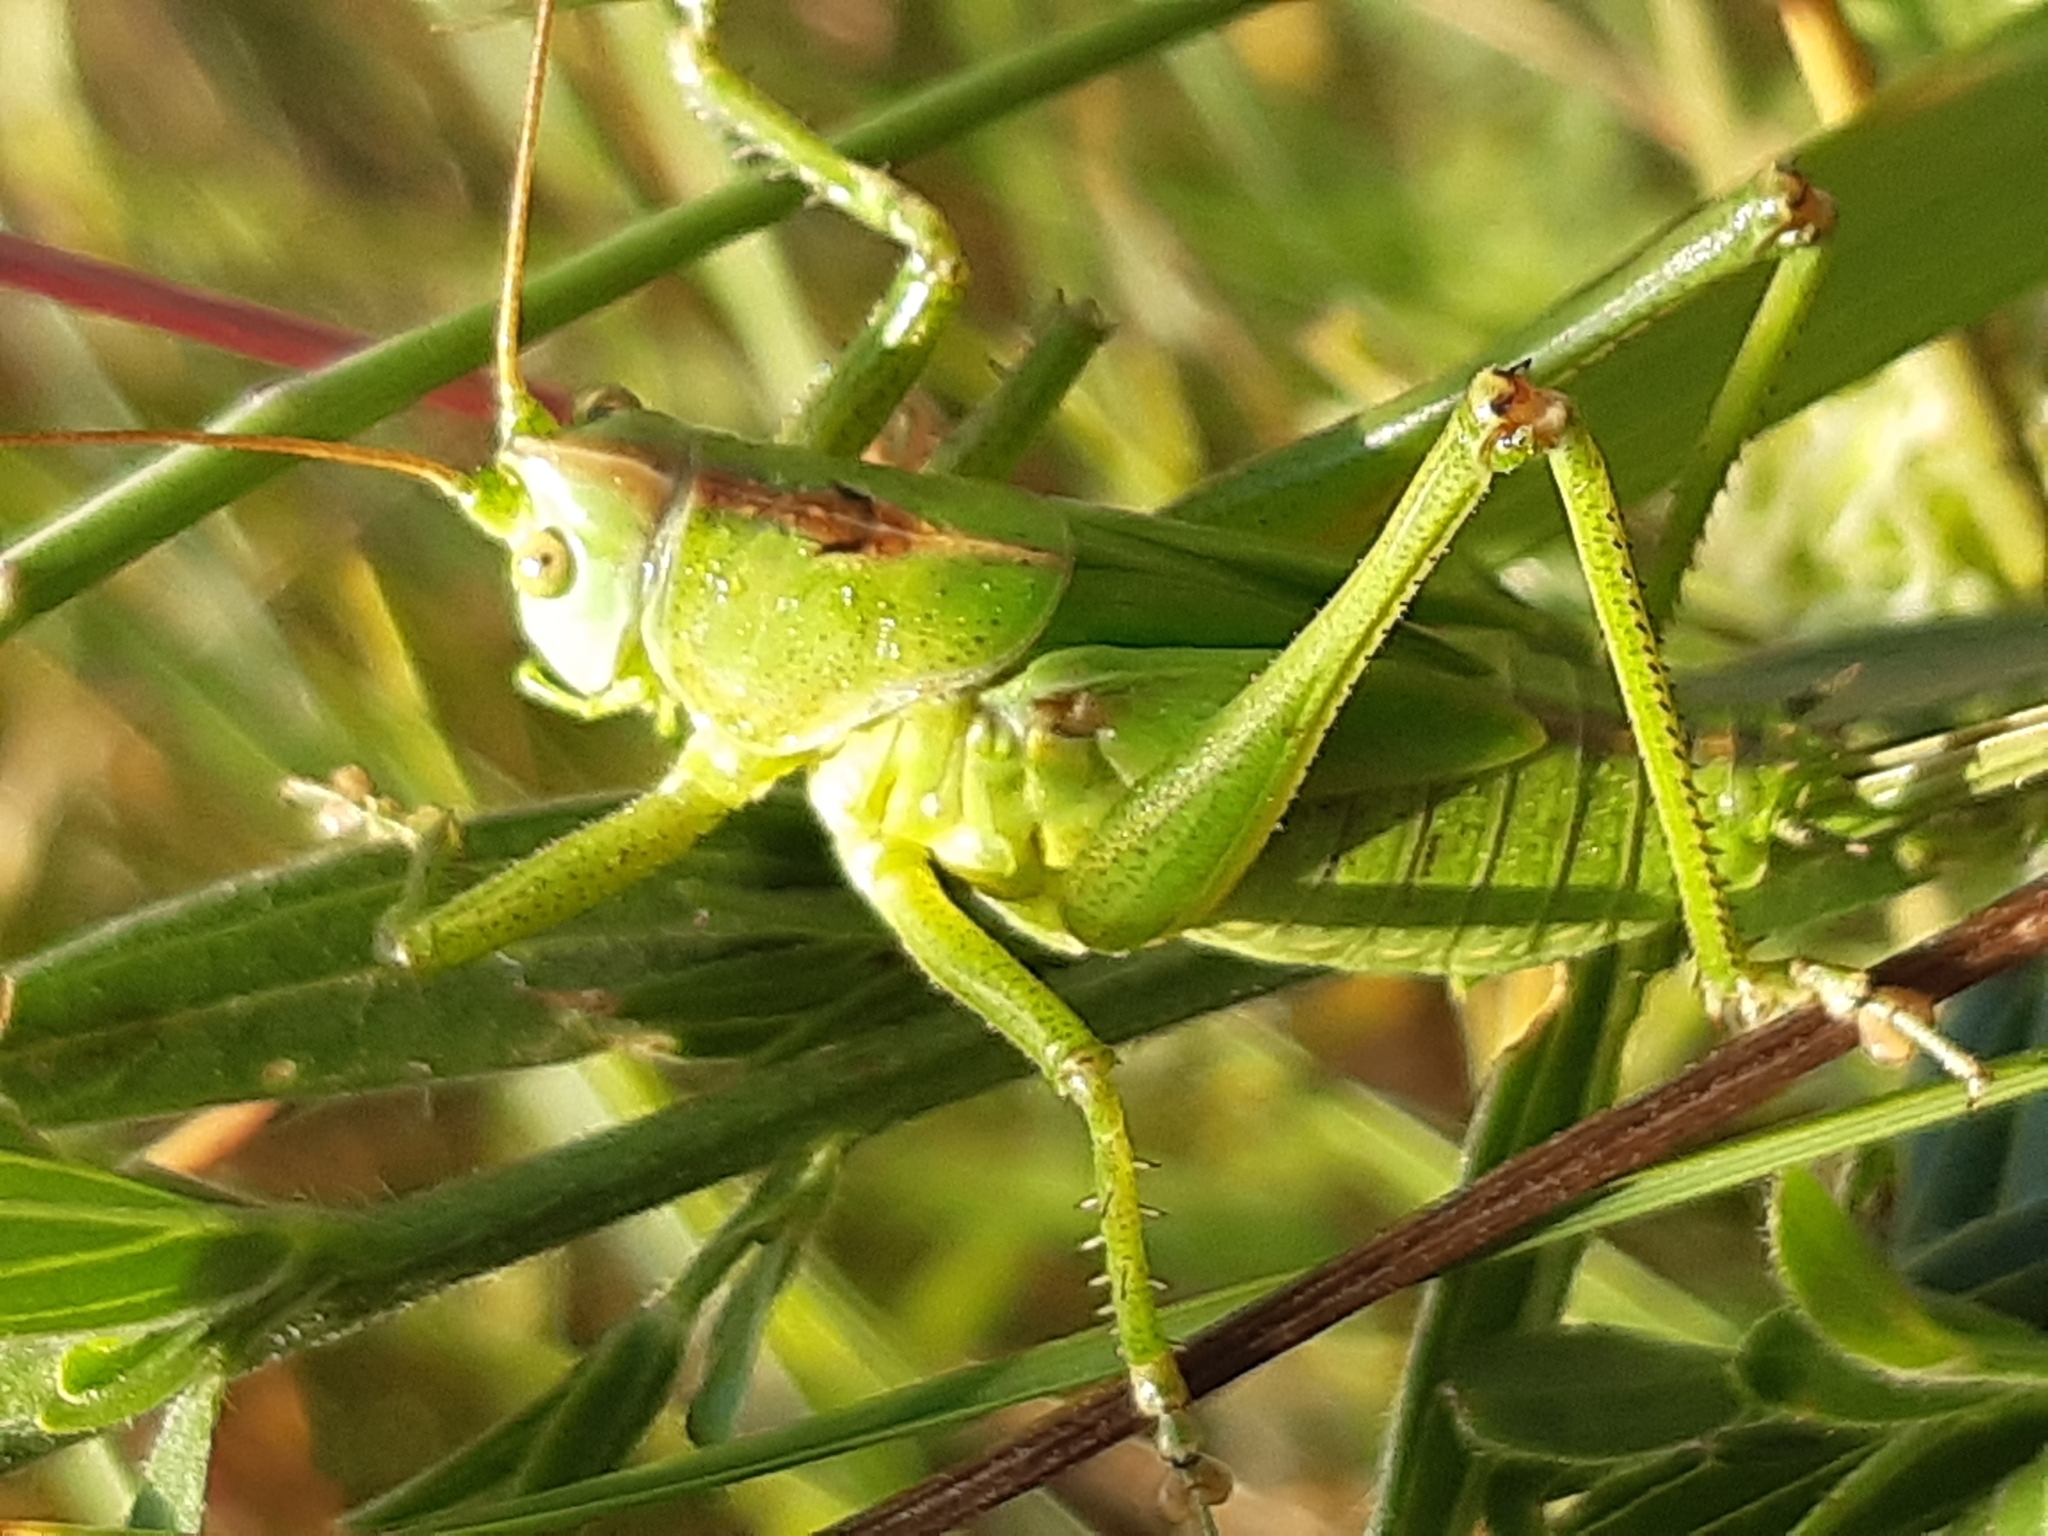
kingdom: Animalia
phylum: Arthropoda
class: Insecta
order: Orthoptera
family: Tettigoniidae
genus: Tettigonia
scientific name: Tettigonia viridissima
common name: Great green bush-cricket
